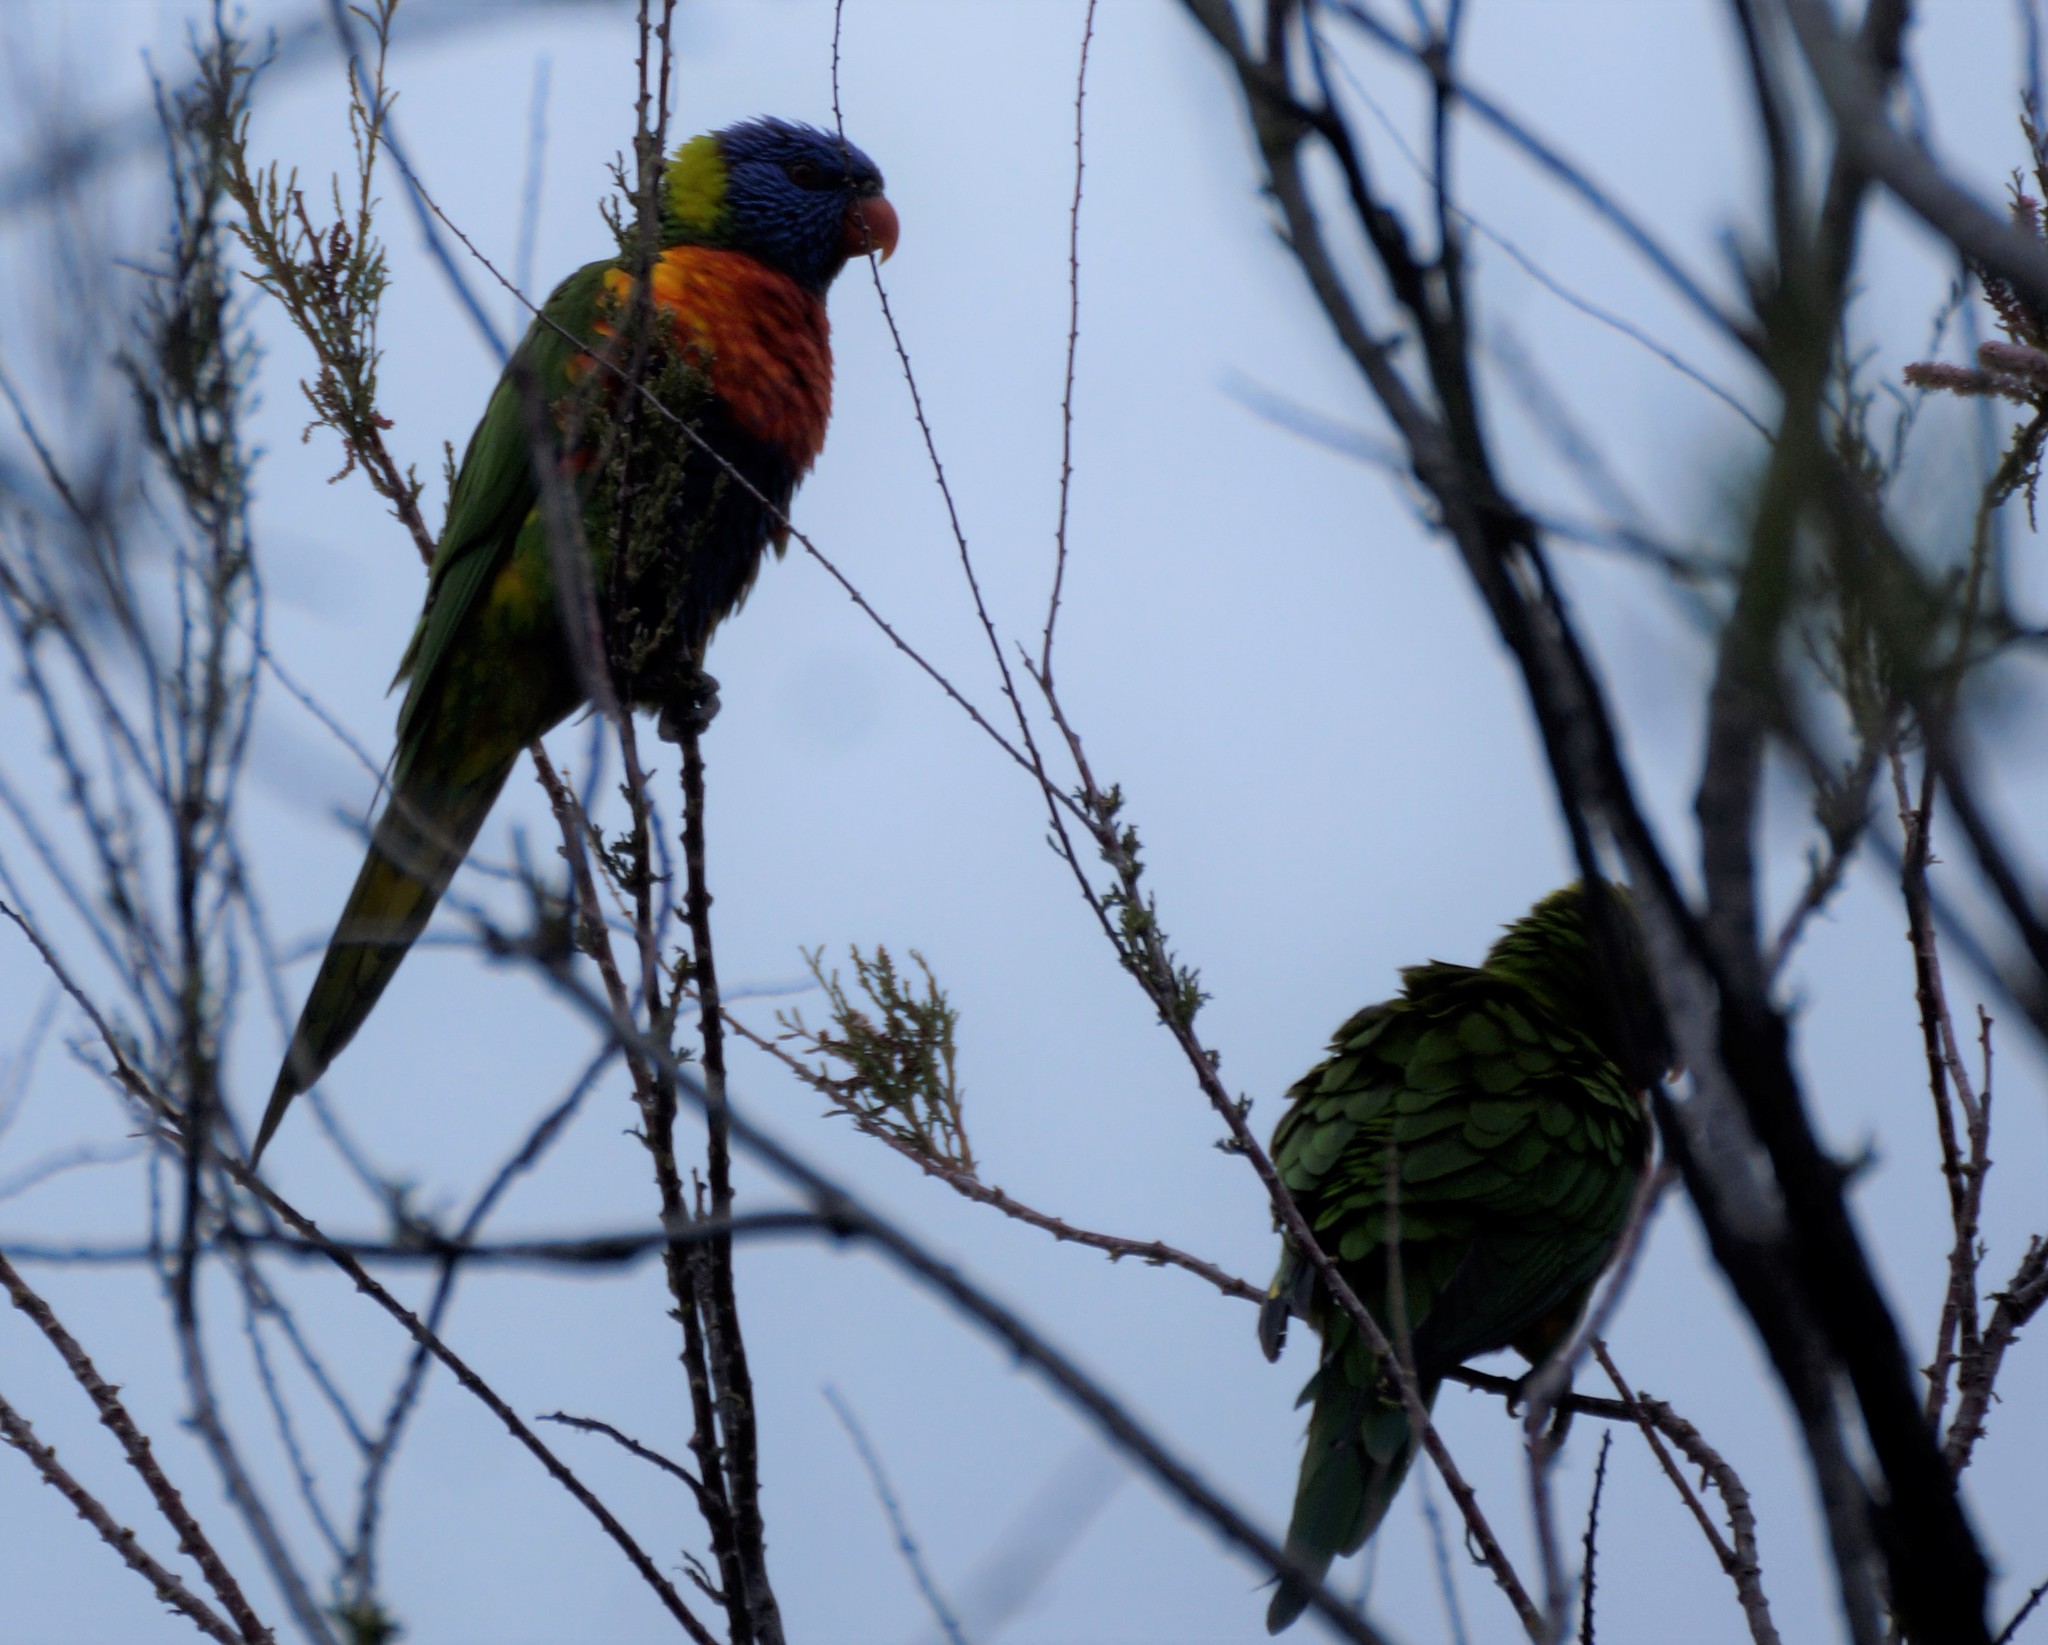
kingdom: Animalia
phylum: Chordata
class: Aves
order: Psittaciformes
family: Psittacidae
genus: Trichoglossus
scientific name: Trichoglossus haematodus
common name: Coconut lorikeet
